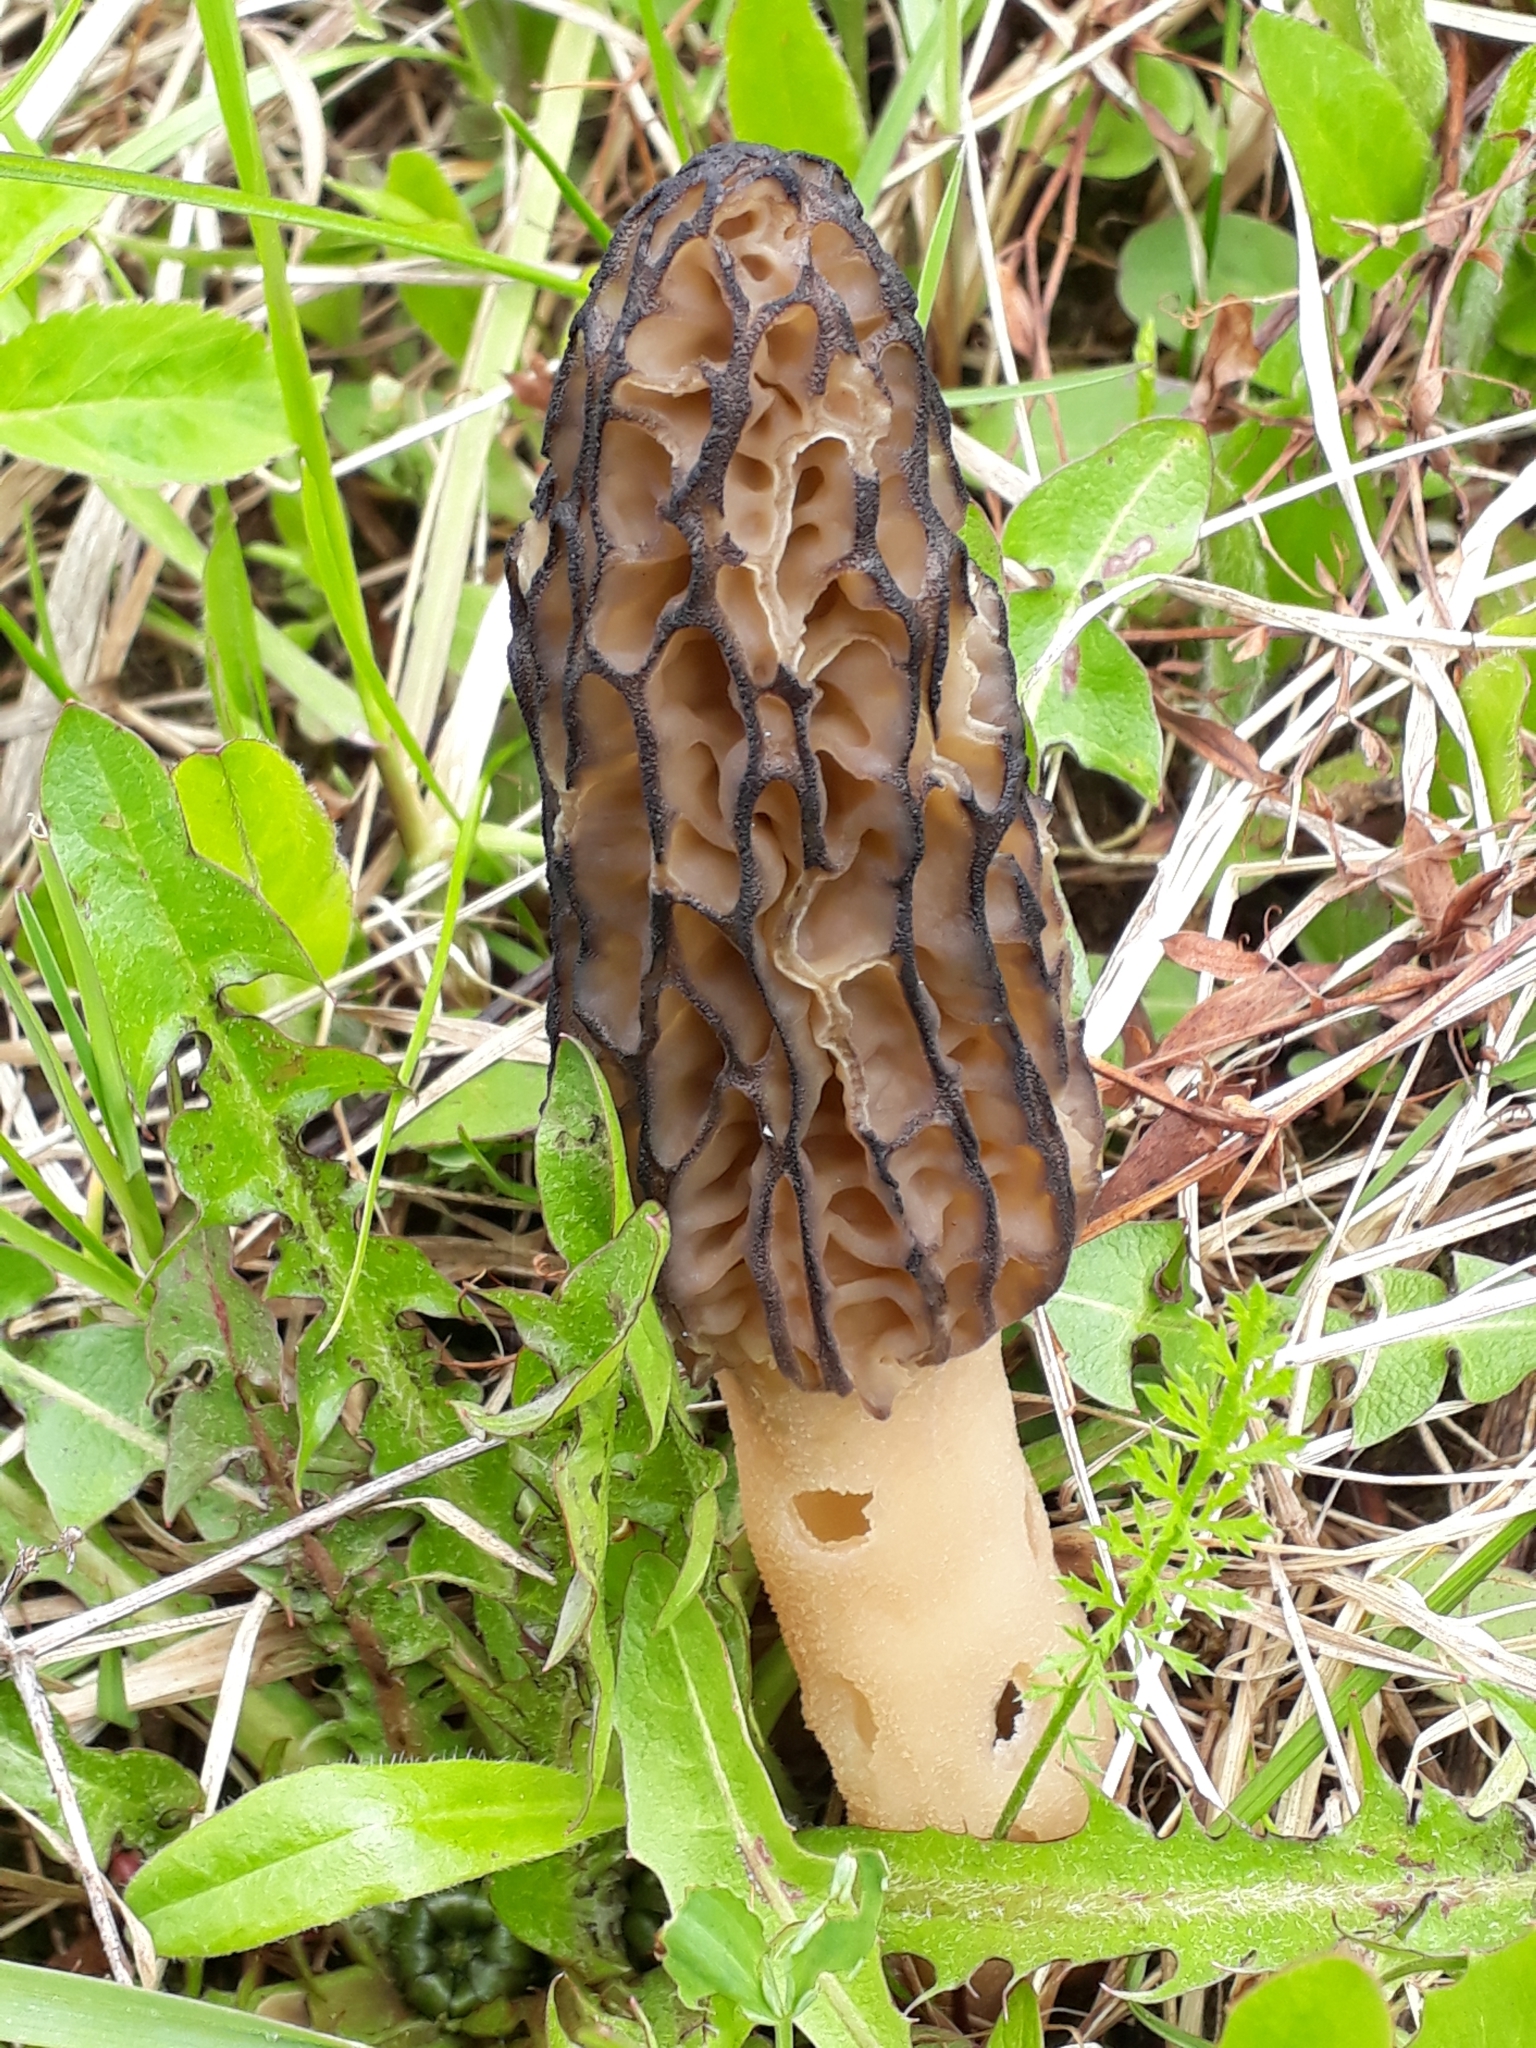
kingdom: Fungi
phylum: Ascomycota
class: Pezizomycetes
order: Pezizales
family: Morchellaceae
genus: Morchella
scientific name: Morchella
